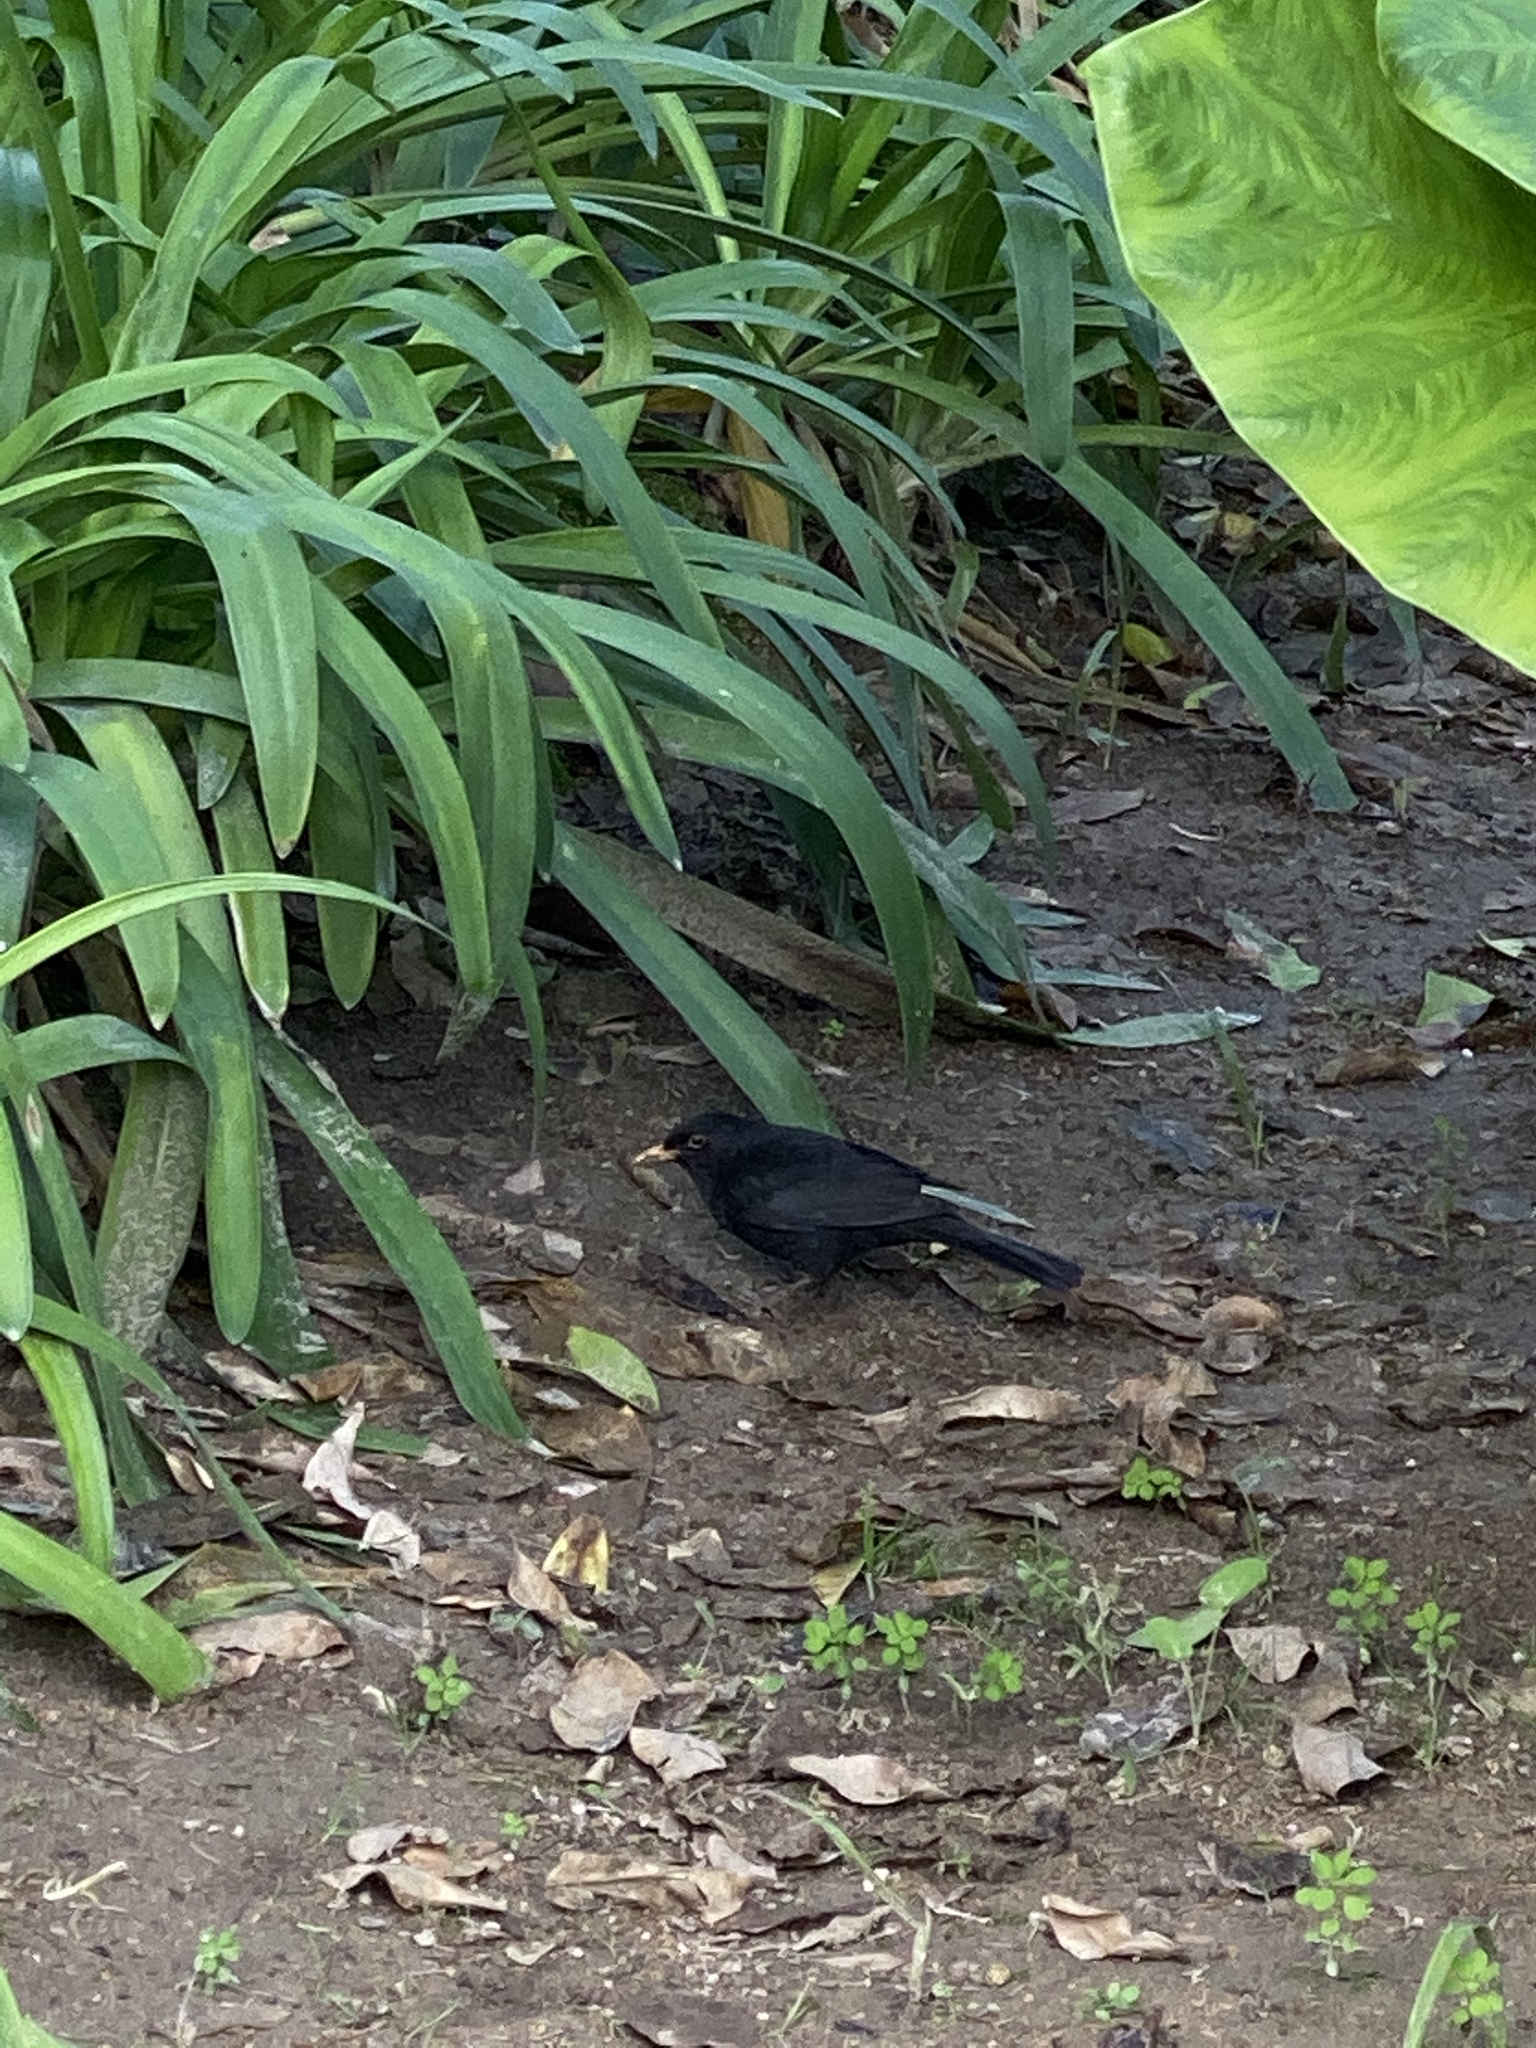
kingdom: Animalia
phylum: Chordata
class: Aves
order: Passeriformes
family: Turdidae
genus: Turdus
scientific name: Turdus merula
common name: Common blackbird
